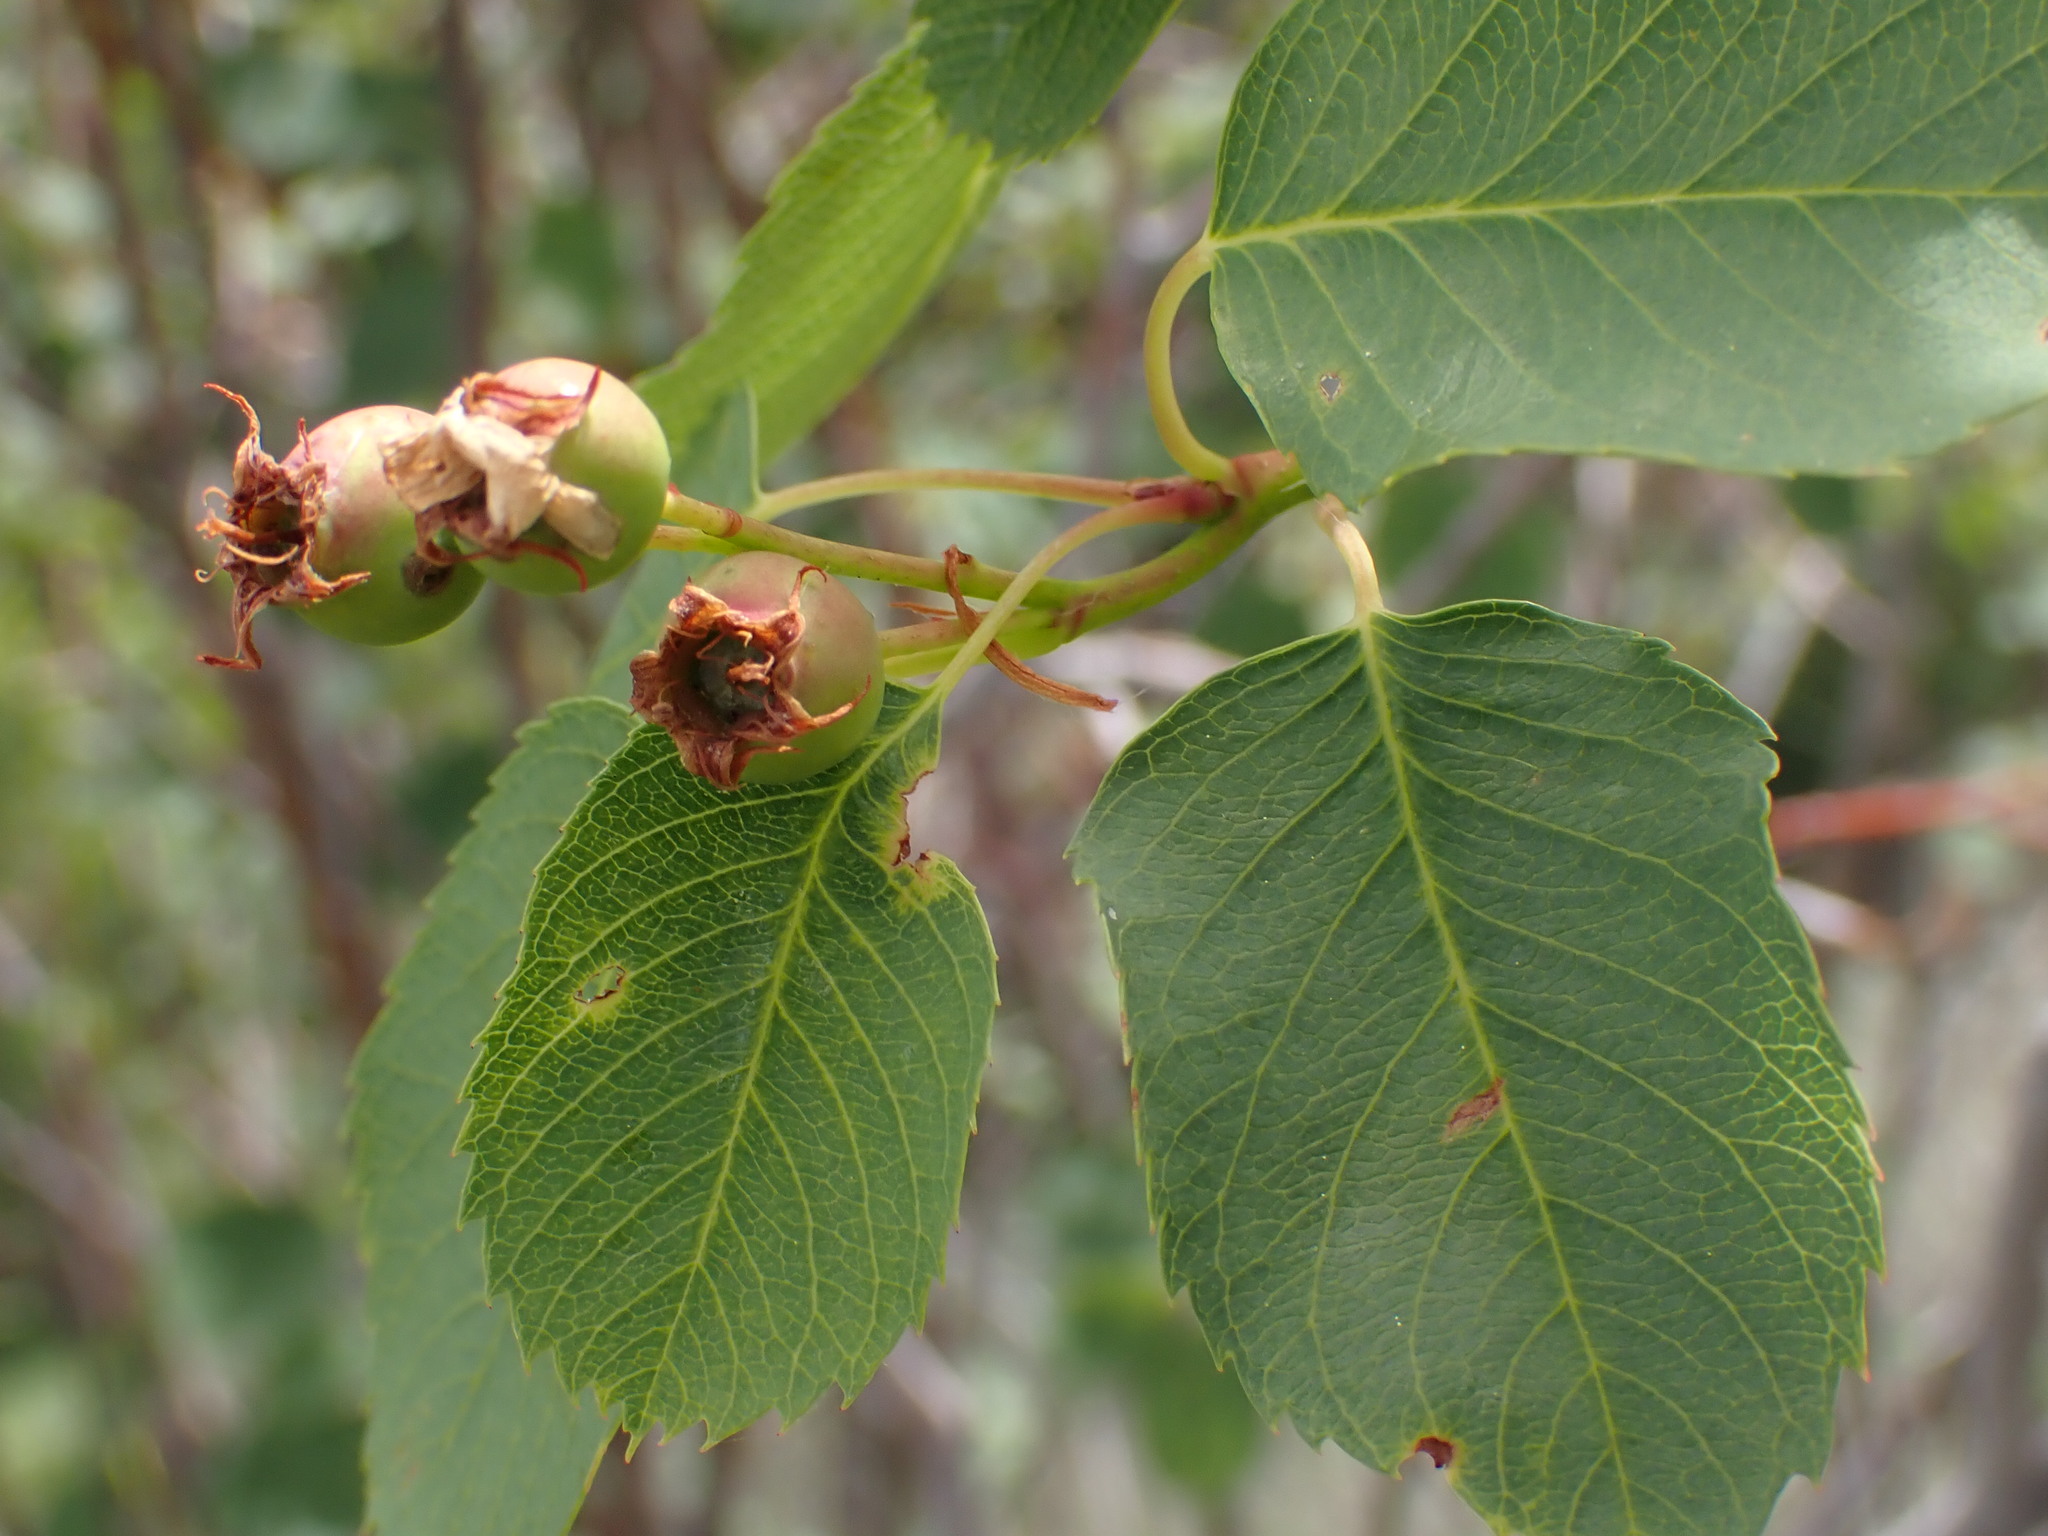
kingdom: Plantae
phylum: Tracheophyta
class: Magnoliopsida
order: Rosales
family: Rosaceae
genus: Amelanchier
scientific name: Amelanchier alnifolia
